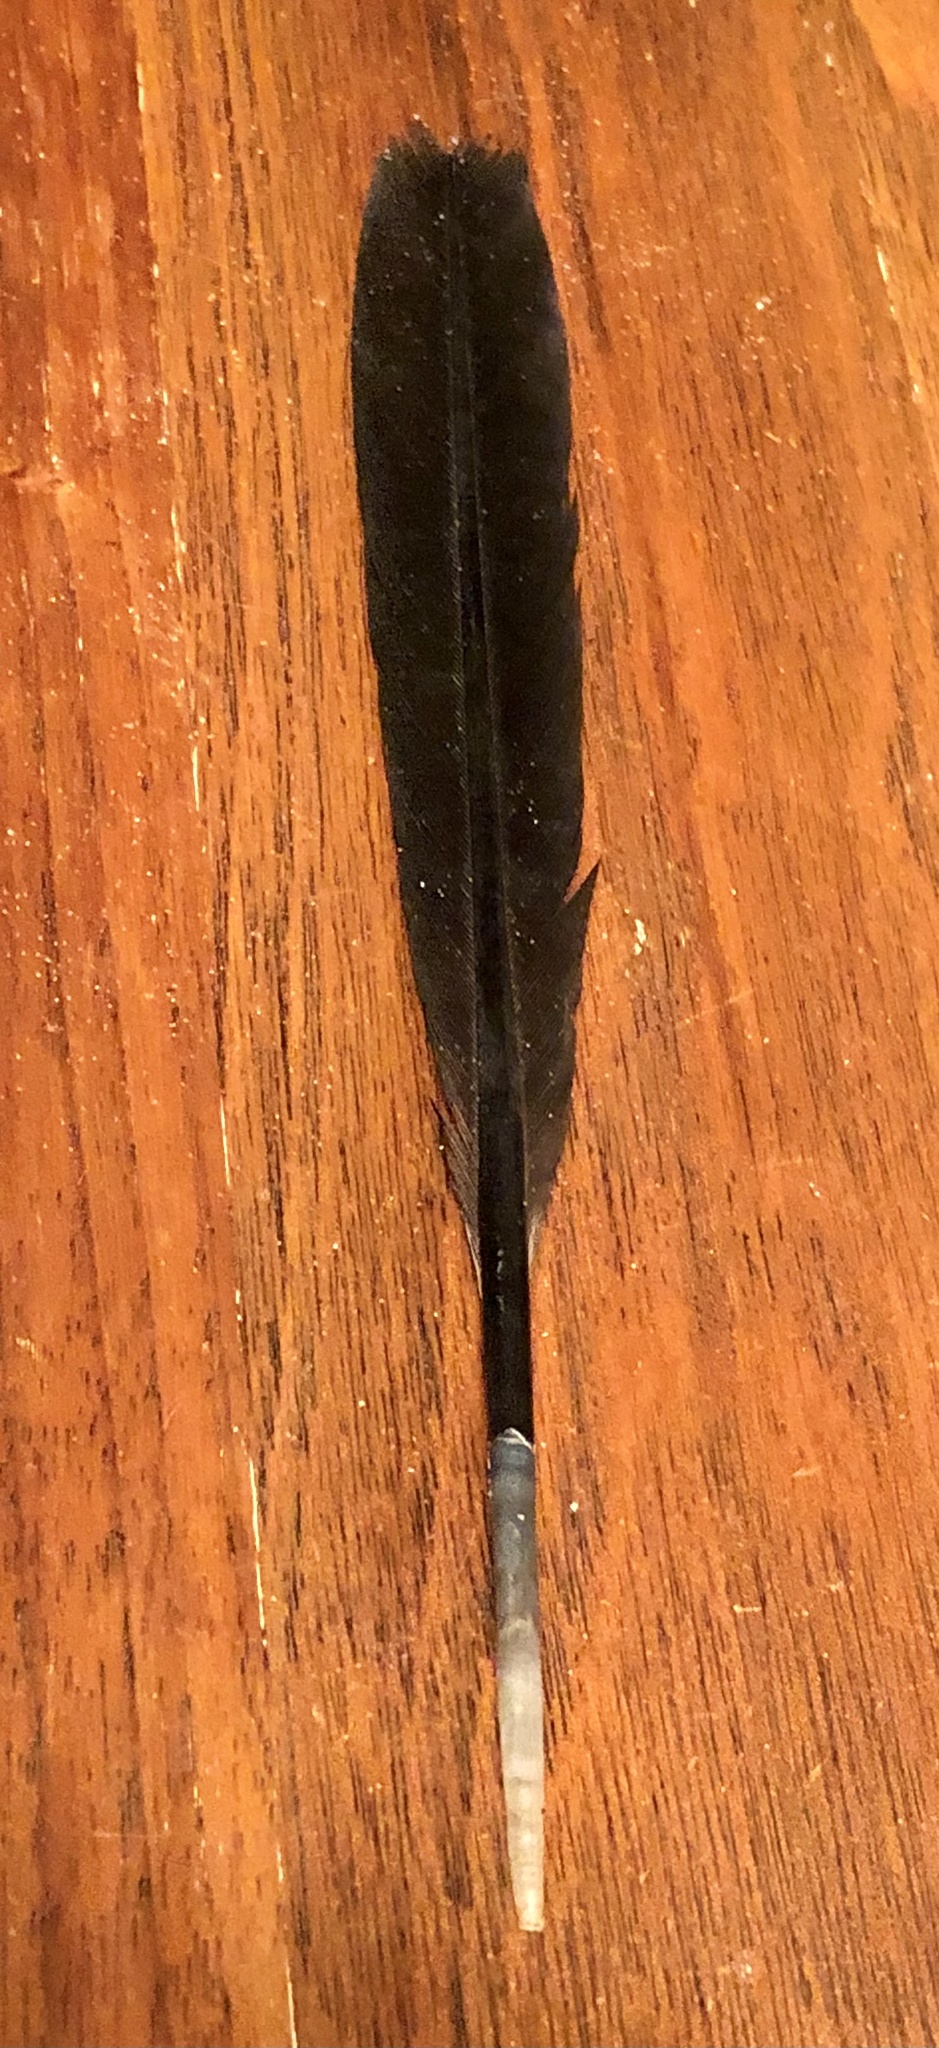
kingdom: Animalia
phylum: Chordata
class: Aves
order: Suliformes
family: Phalacrocoracidae
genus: Phalacrocorax
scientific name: Phalacrocorax auritus
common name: Double-crested cormorant
